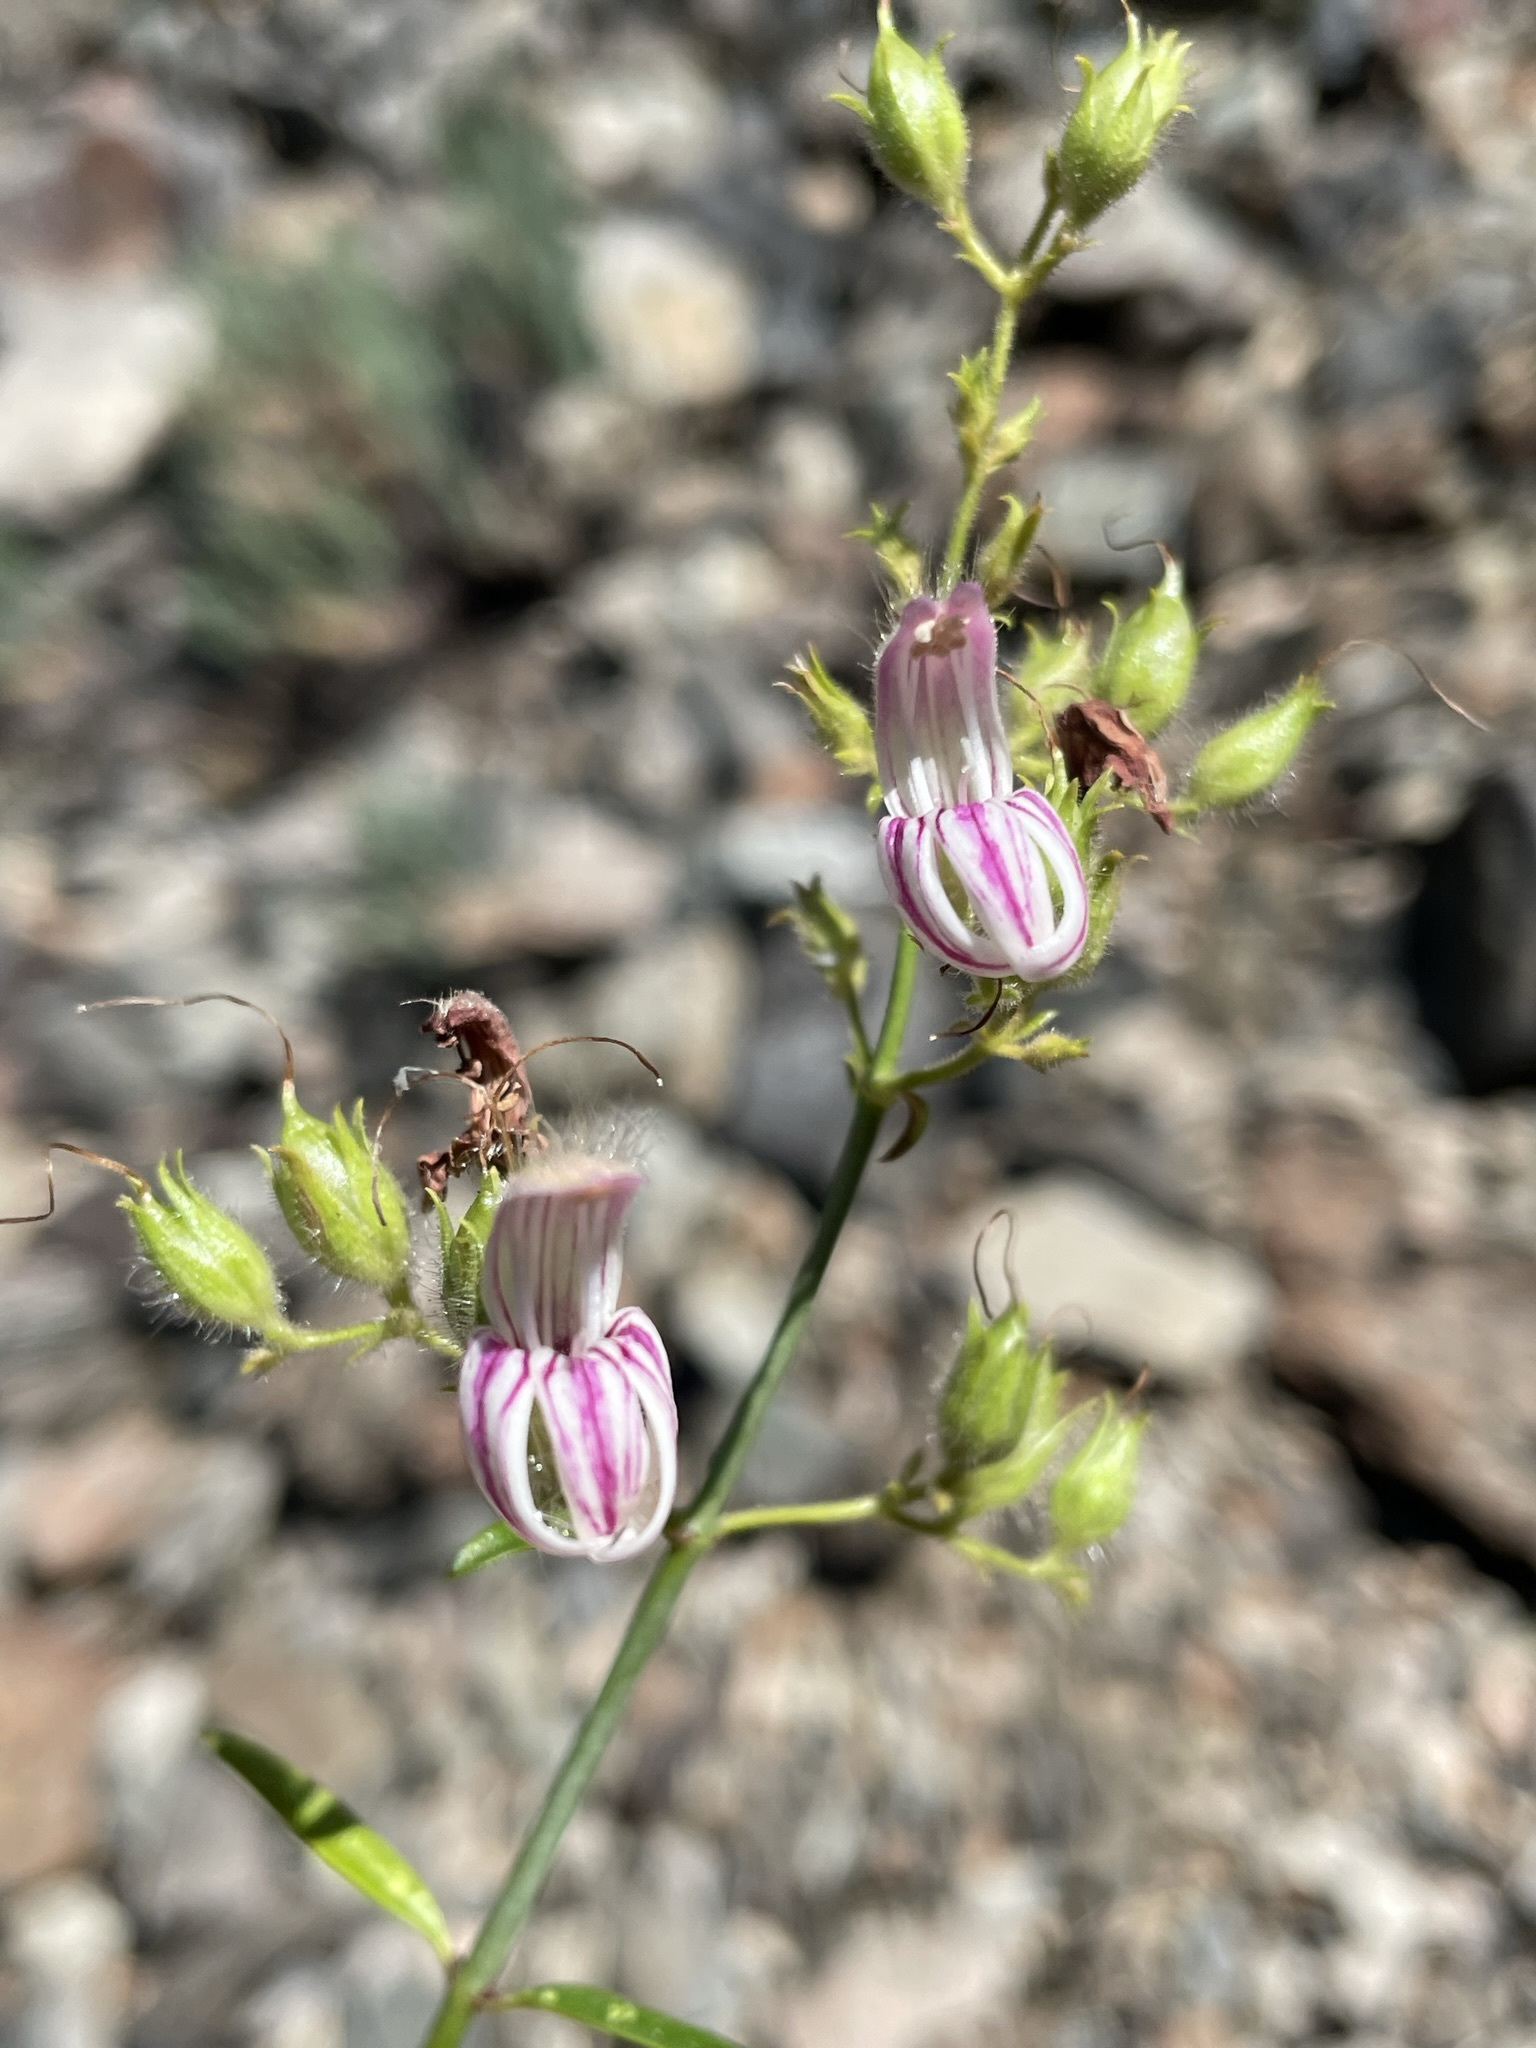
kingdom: Plantae
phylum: Tracheophyta
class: Magnoliopsida
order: Lamiales
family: Plantaginaceae
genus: Keckiella
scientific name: Keckiella breviflora
